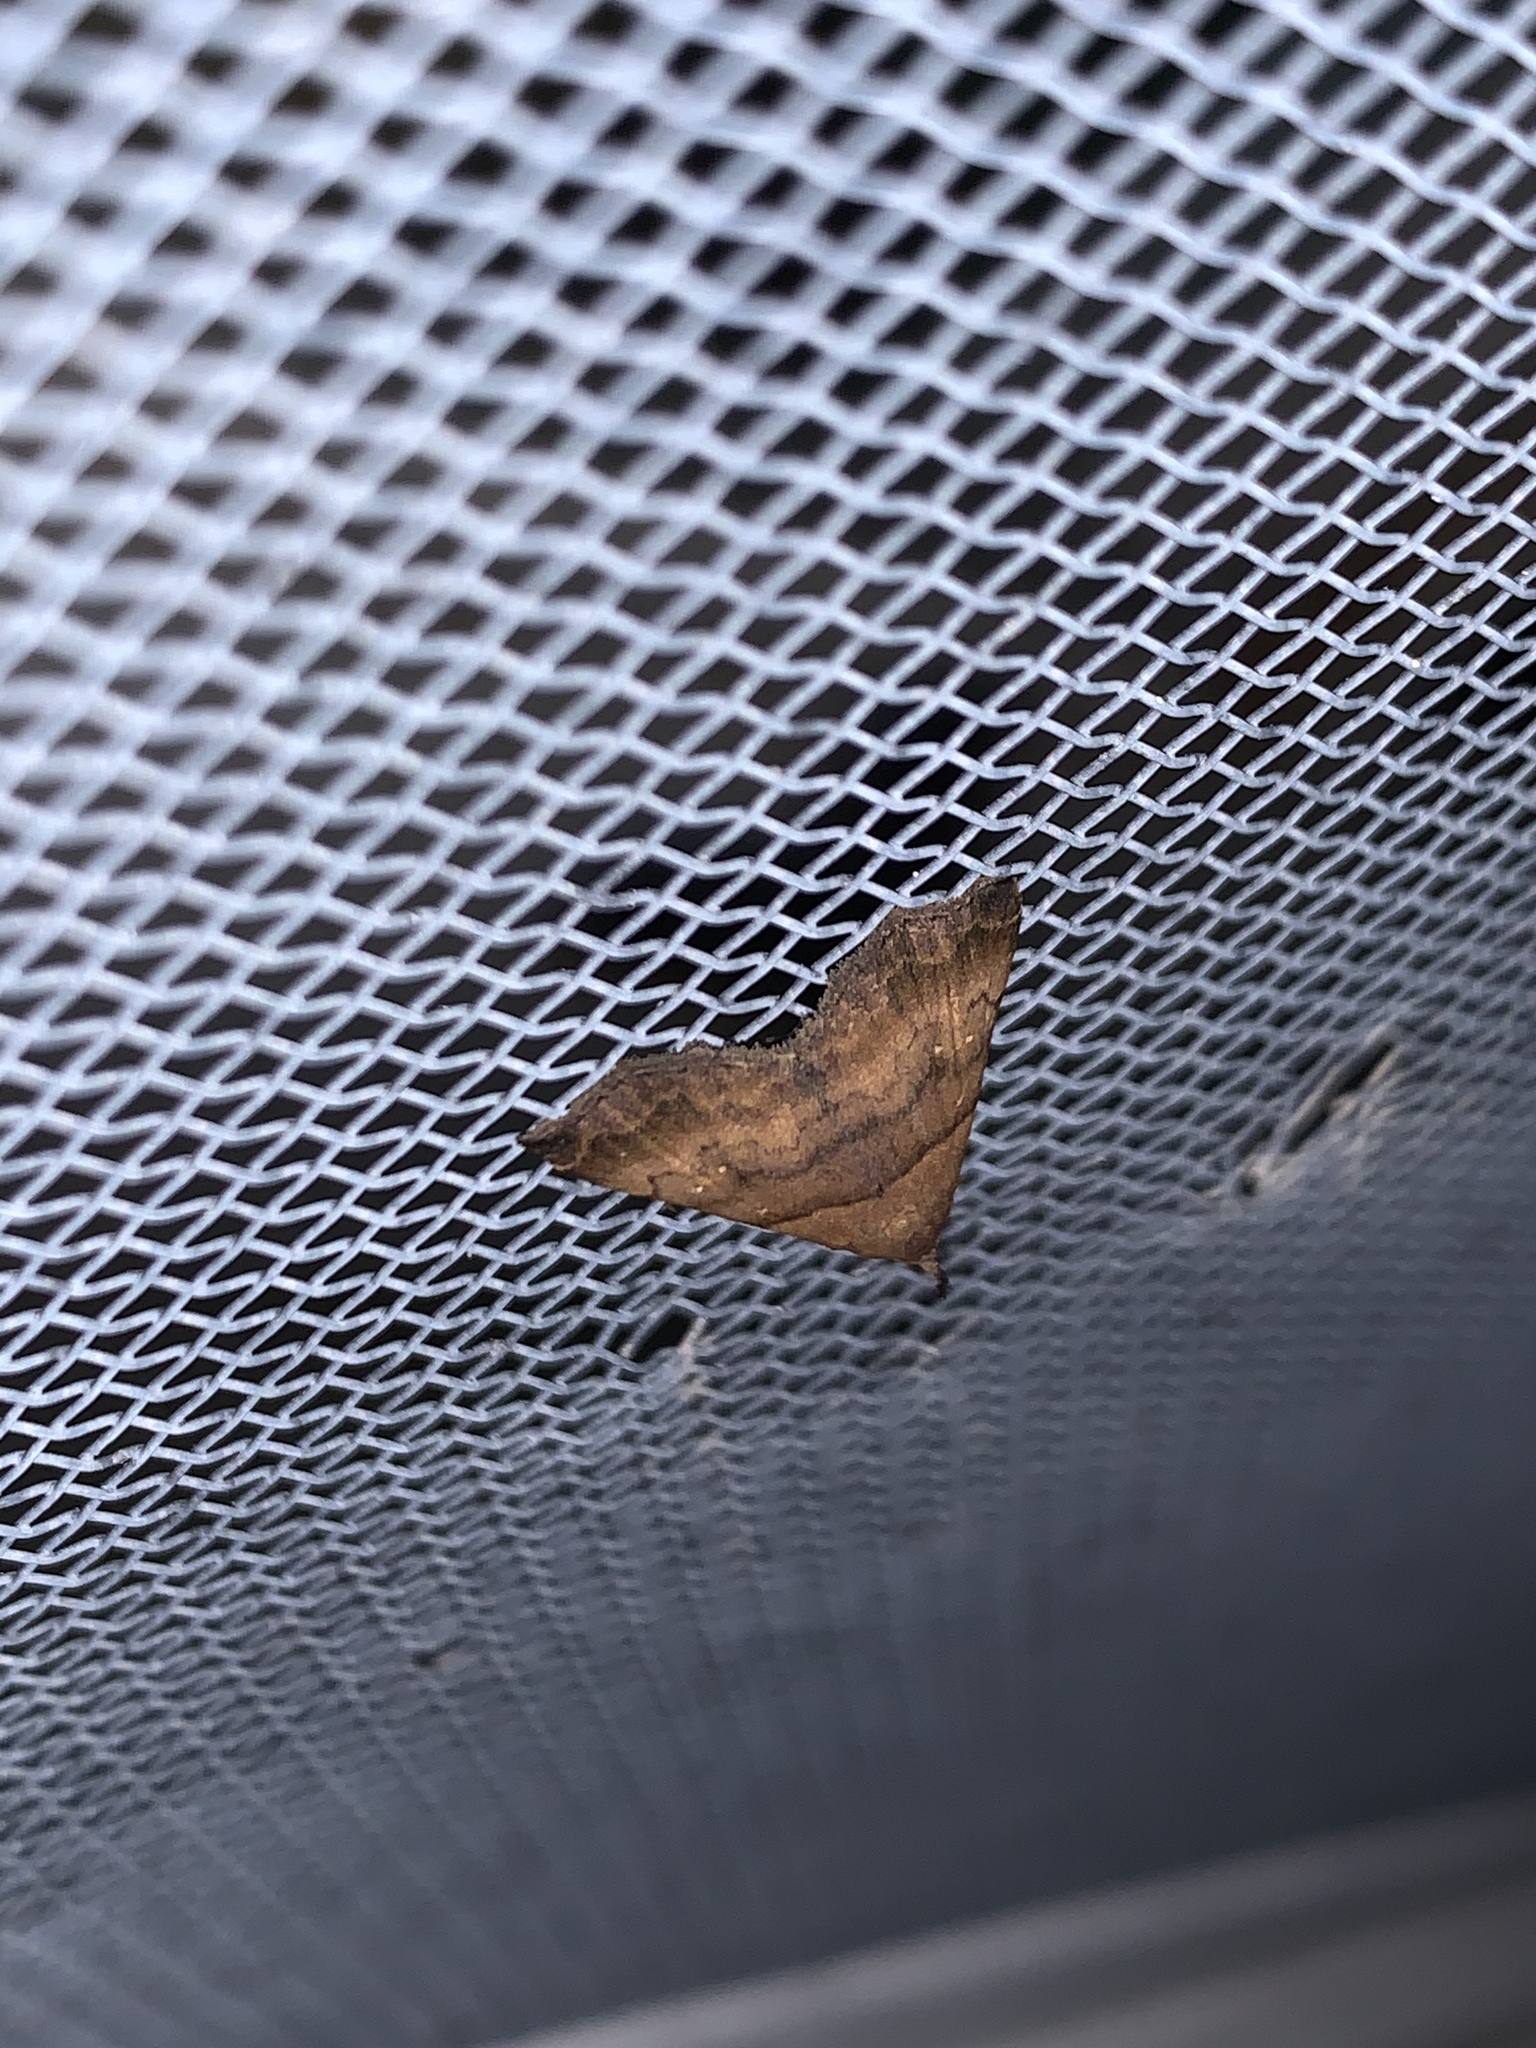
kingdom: Animalia
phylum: Arthropoda
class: Insecta
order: Lepidoptera
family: Erebidae
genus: Lascoria
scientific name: Lascoria ambigualis
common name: Ambiguous moth
